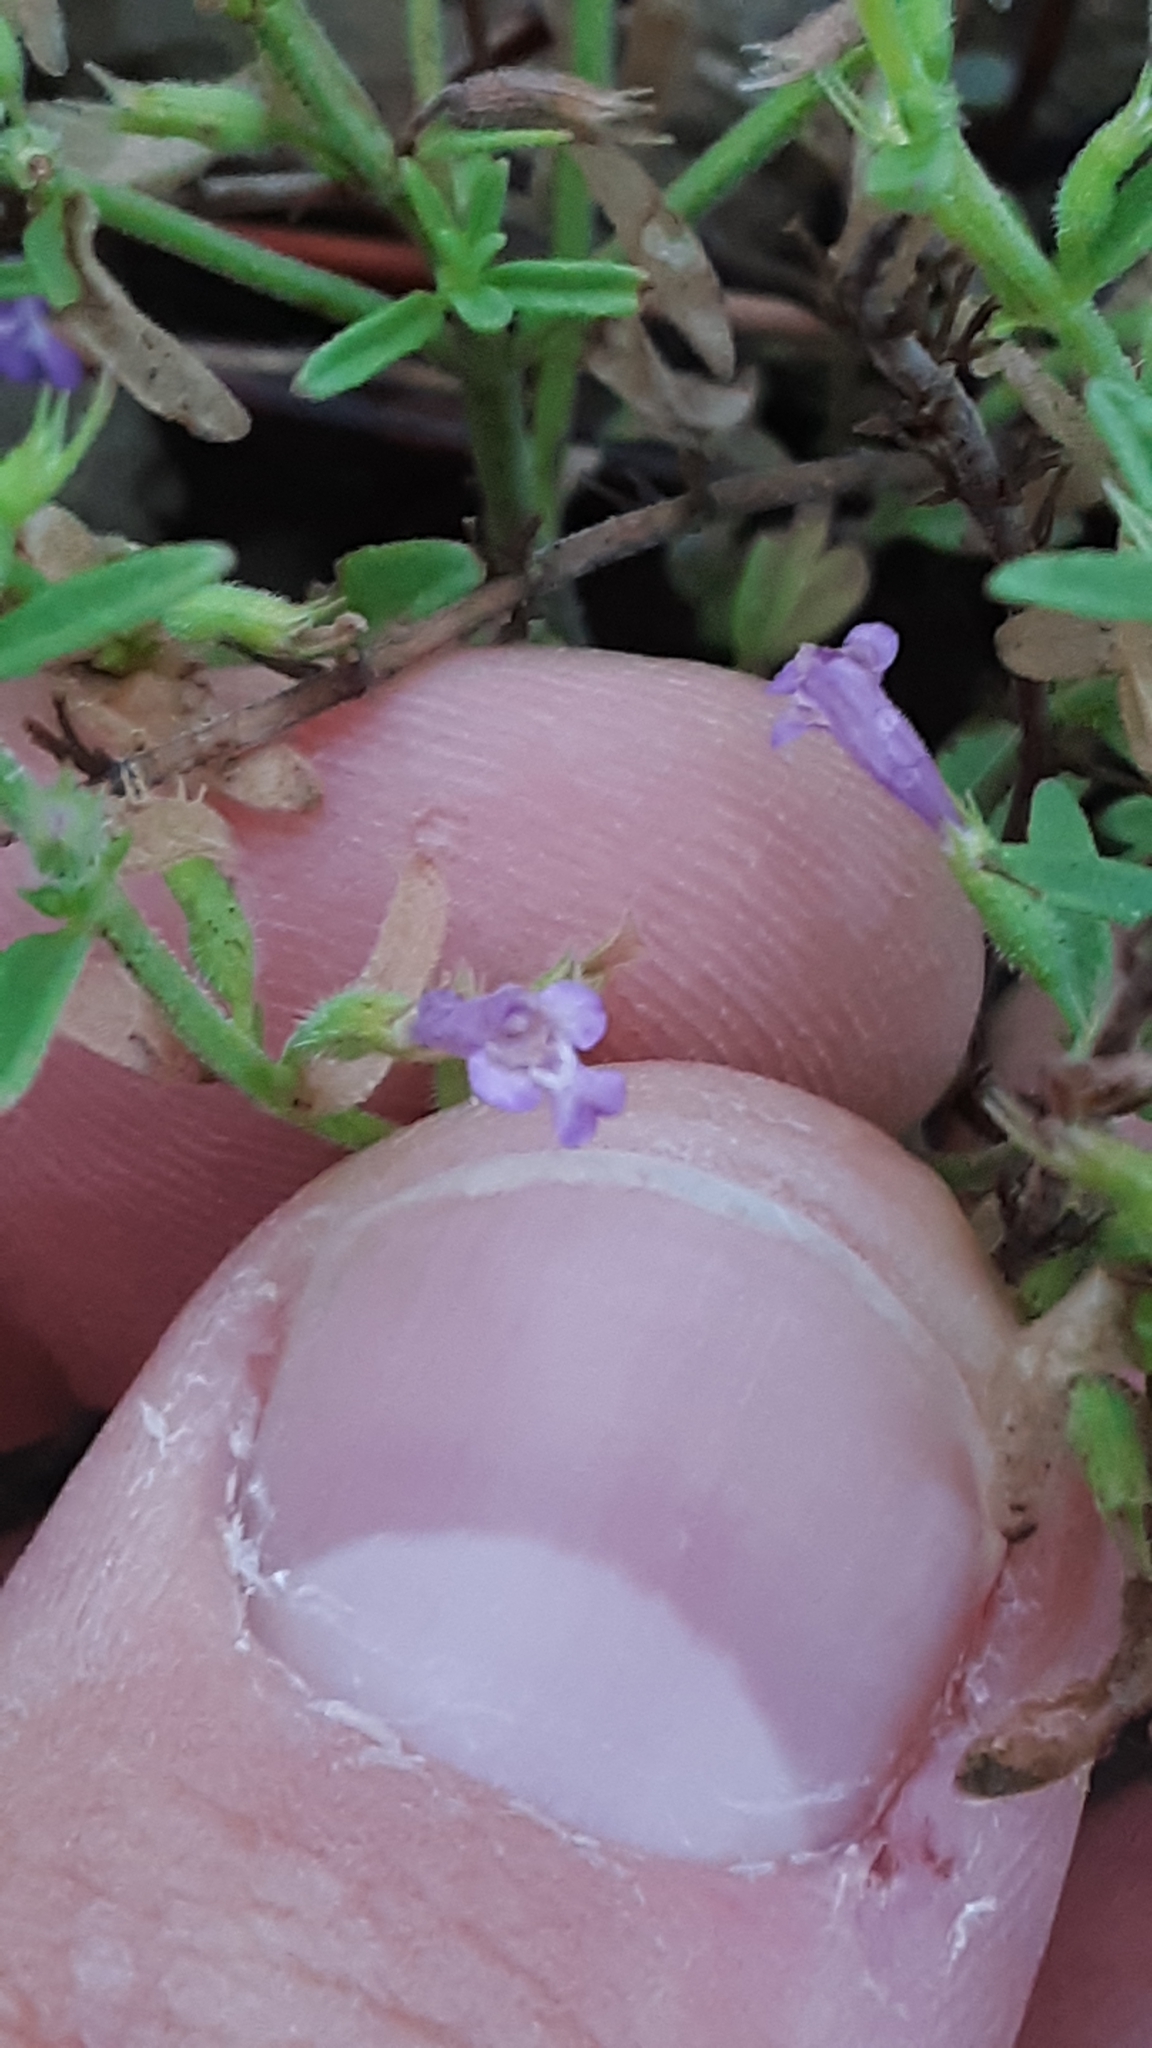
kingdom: Plantae
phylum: Tracheophyta
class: Magnoliopsida
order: Lamiales
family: Lamiaceae
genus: Hedeoma
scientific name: Hedeoma drummondii
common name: New mexico pennyroyal
